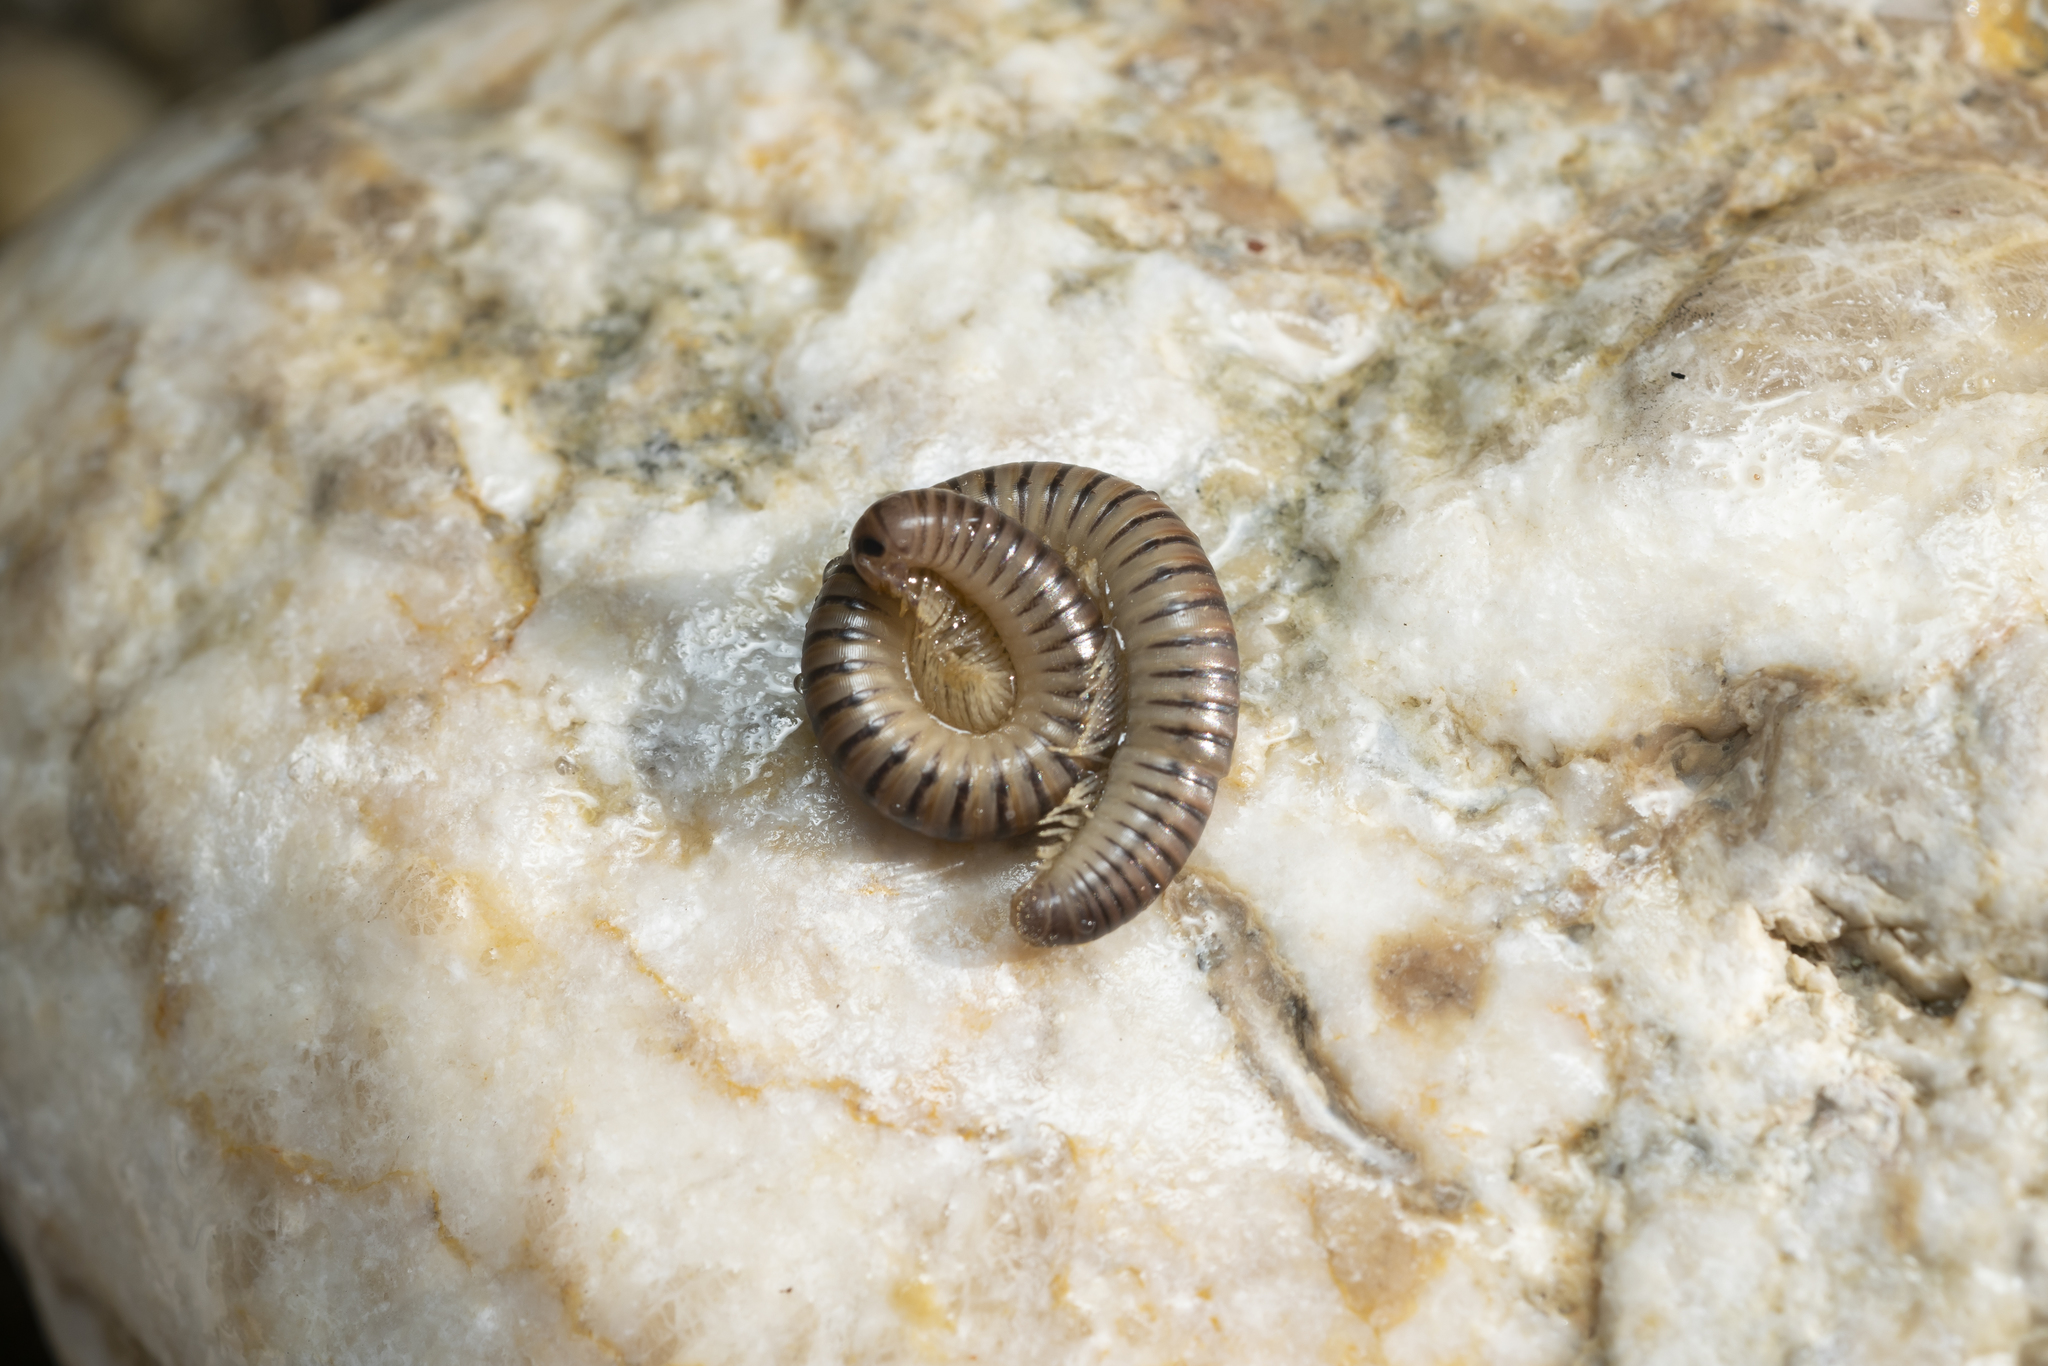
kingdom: Animalia
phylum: Arthropoda
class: Diplopoda
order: Julida
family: Julidae
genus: Pachyiulus
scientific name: Pachyiulus asiaeminoris
